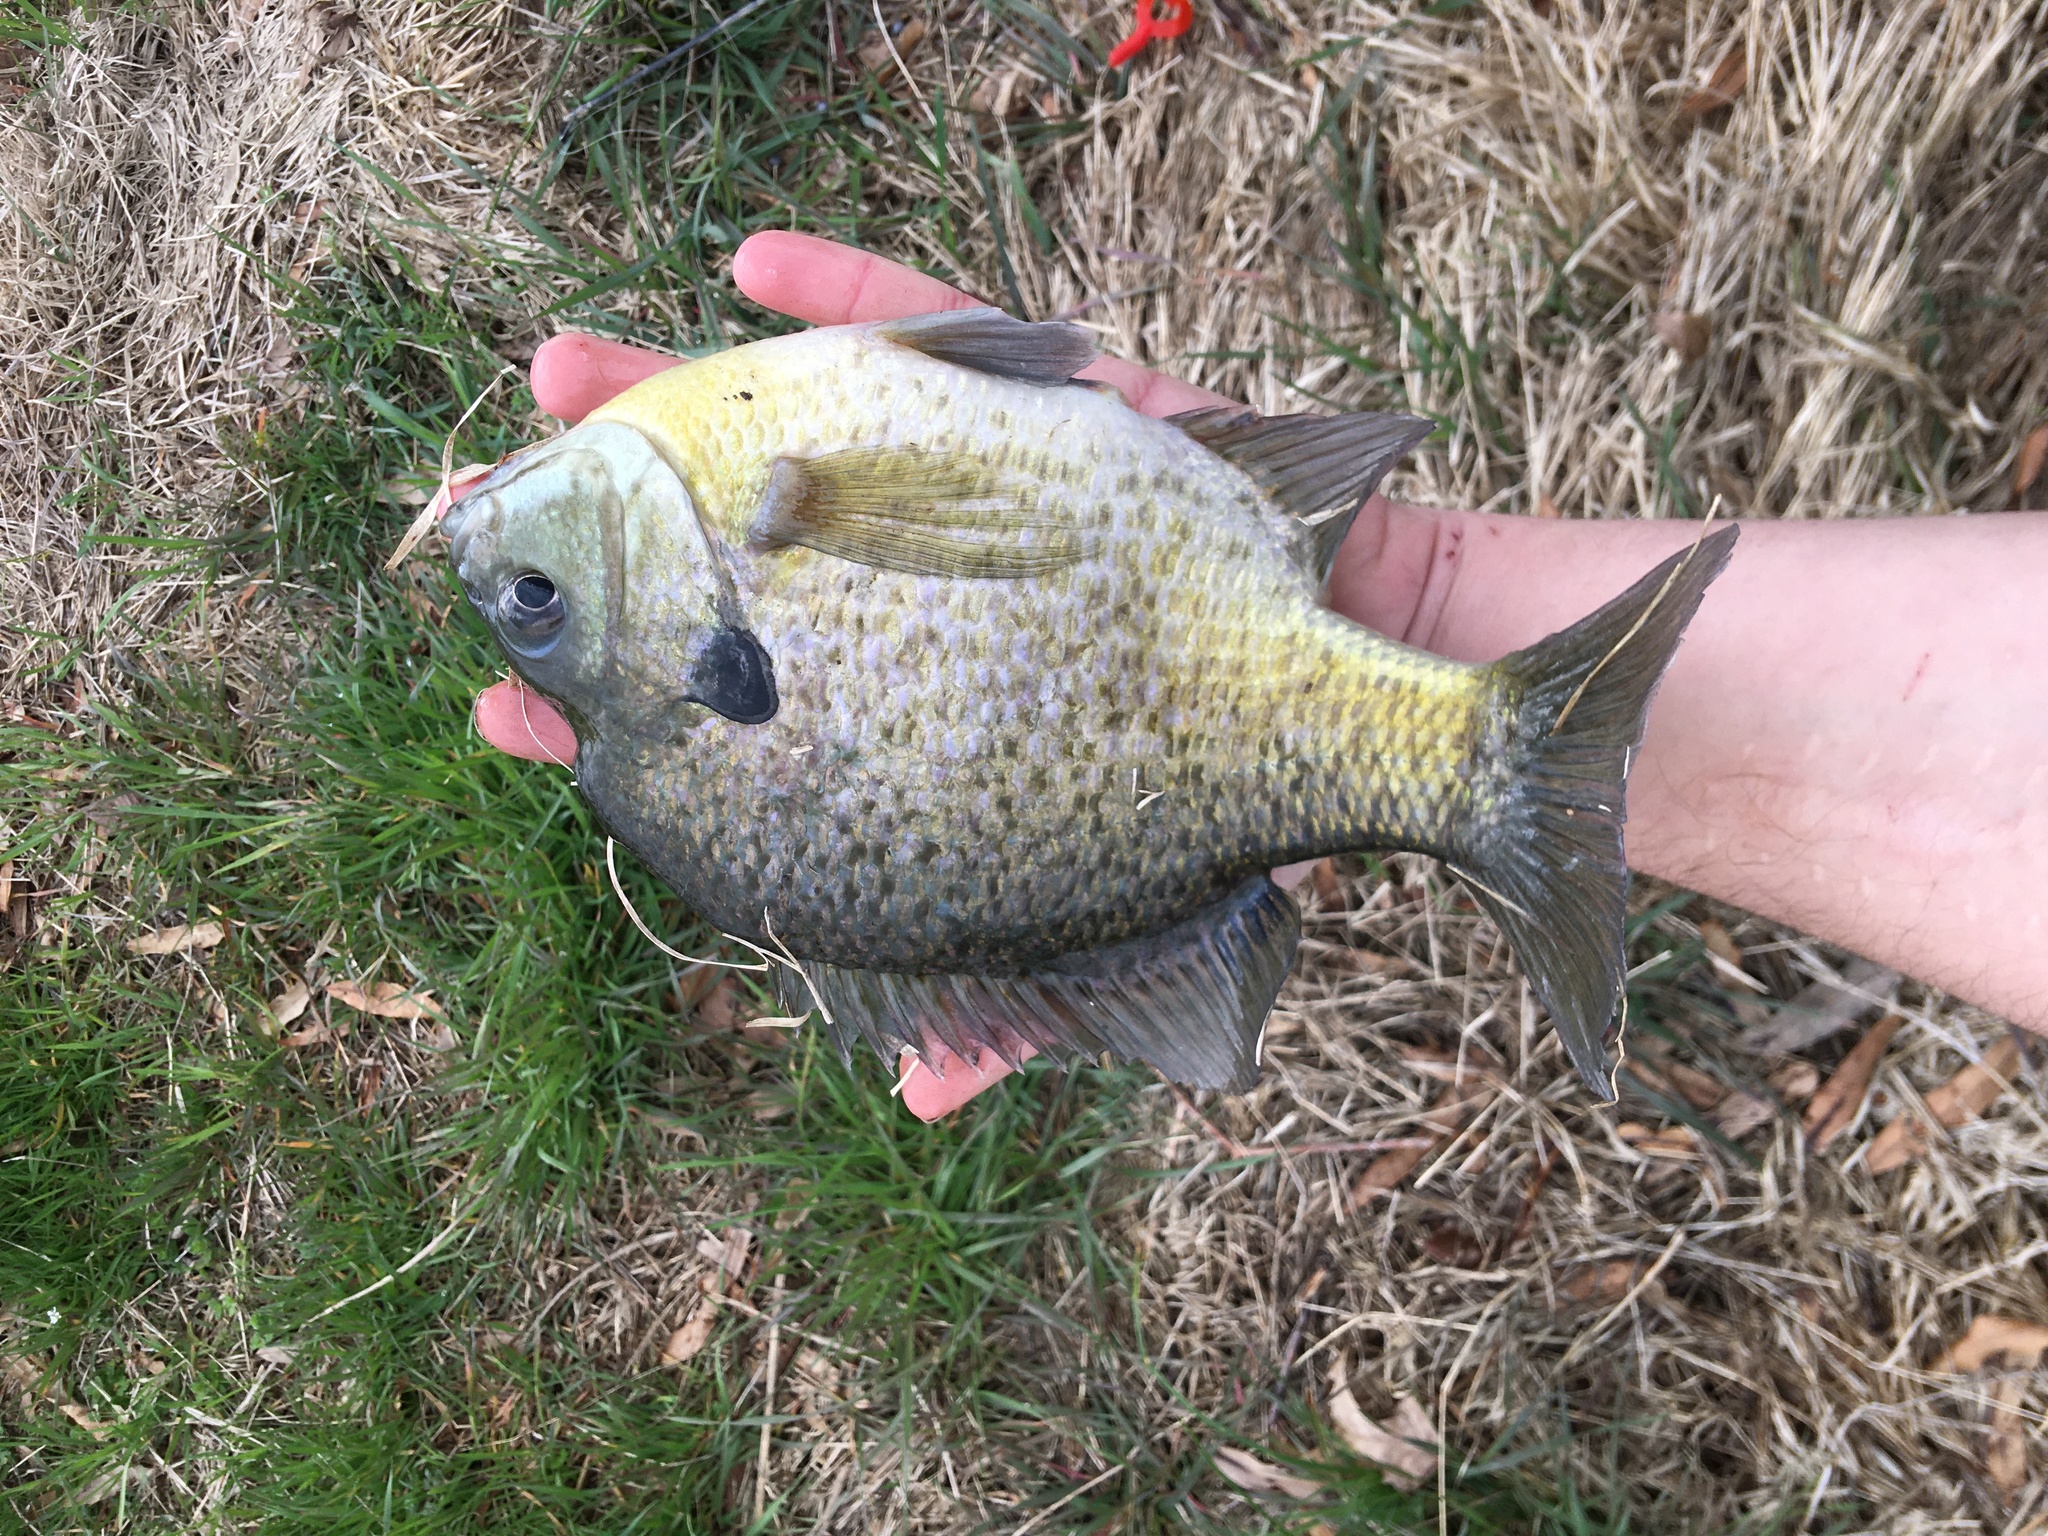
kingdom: Animalia
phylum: Chordata
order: Perciformes
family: Centrarchidae
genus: Lepomis
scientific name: Lepomis macrochirus
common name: Bluegill
